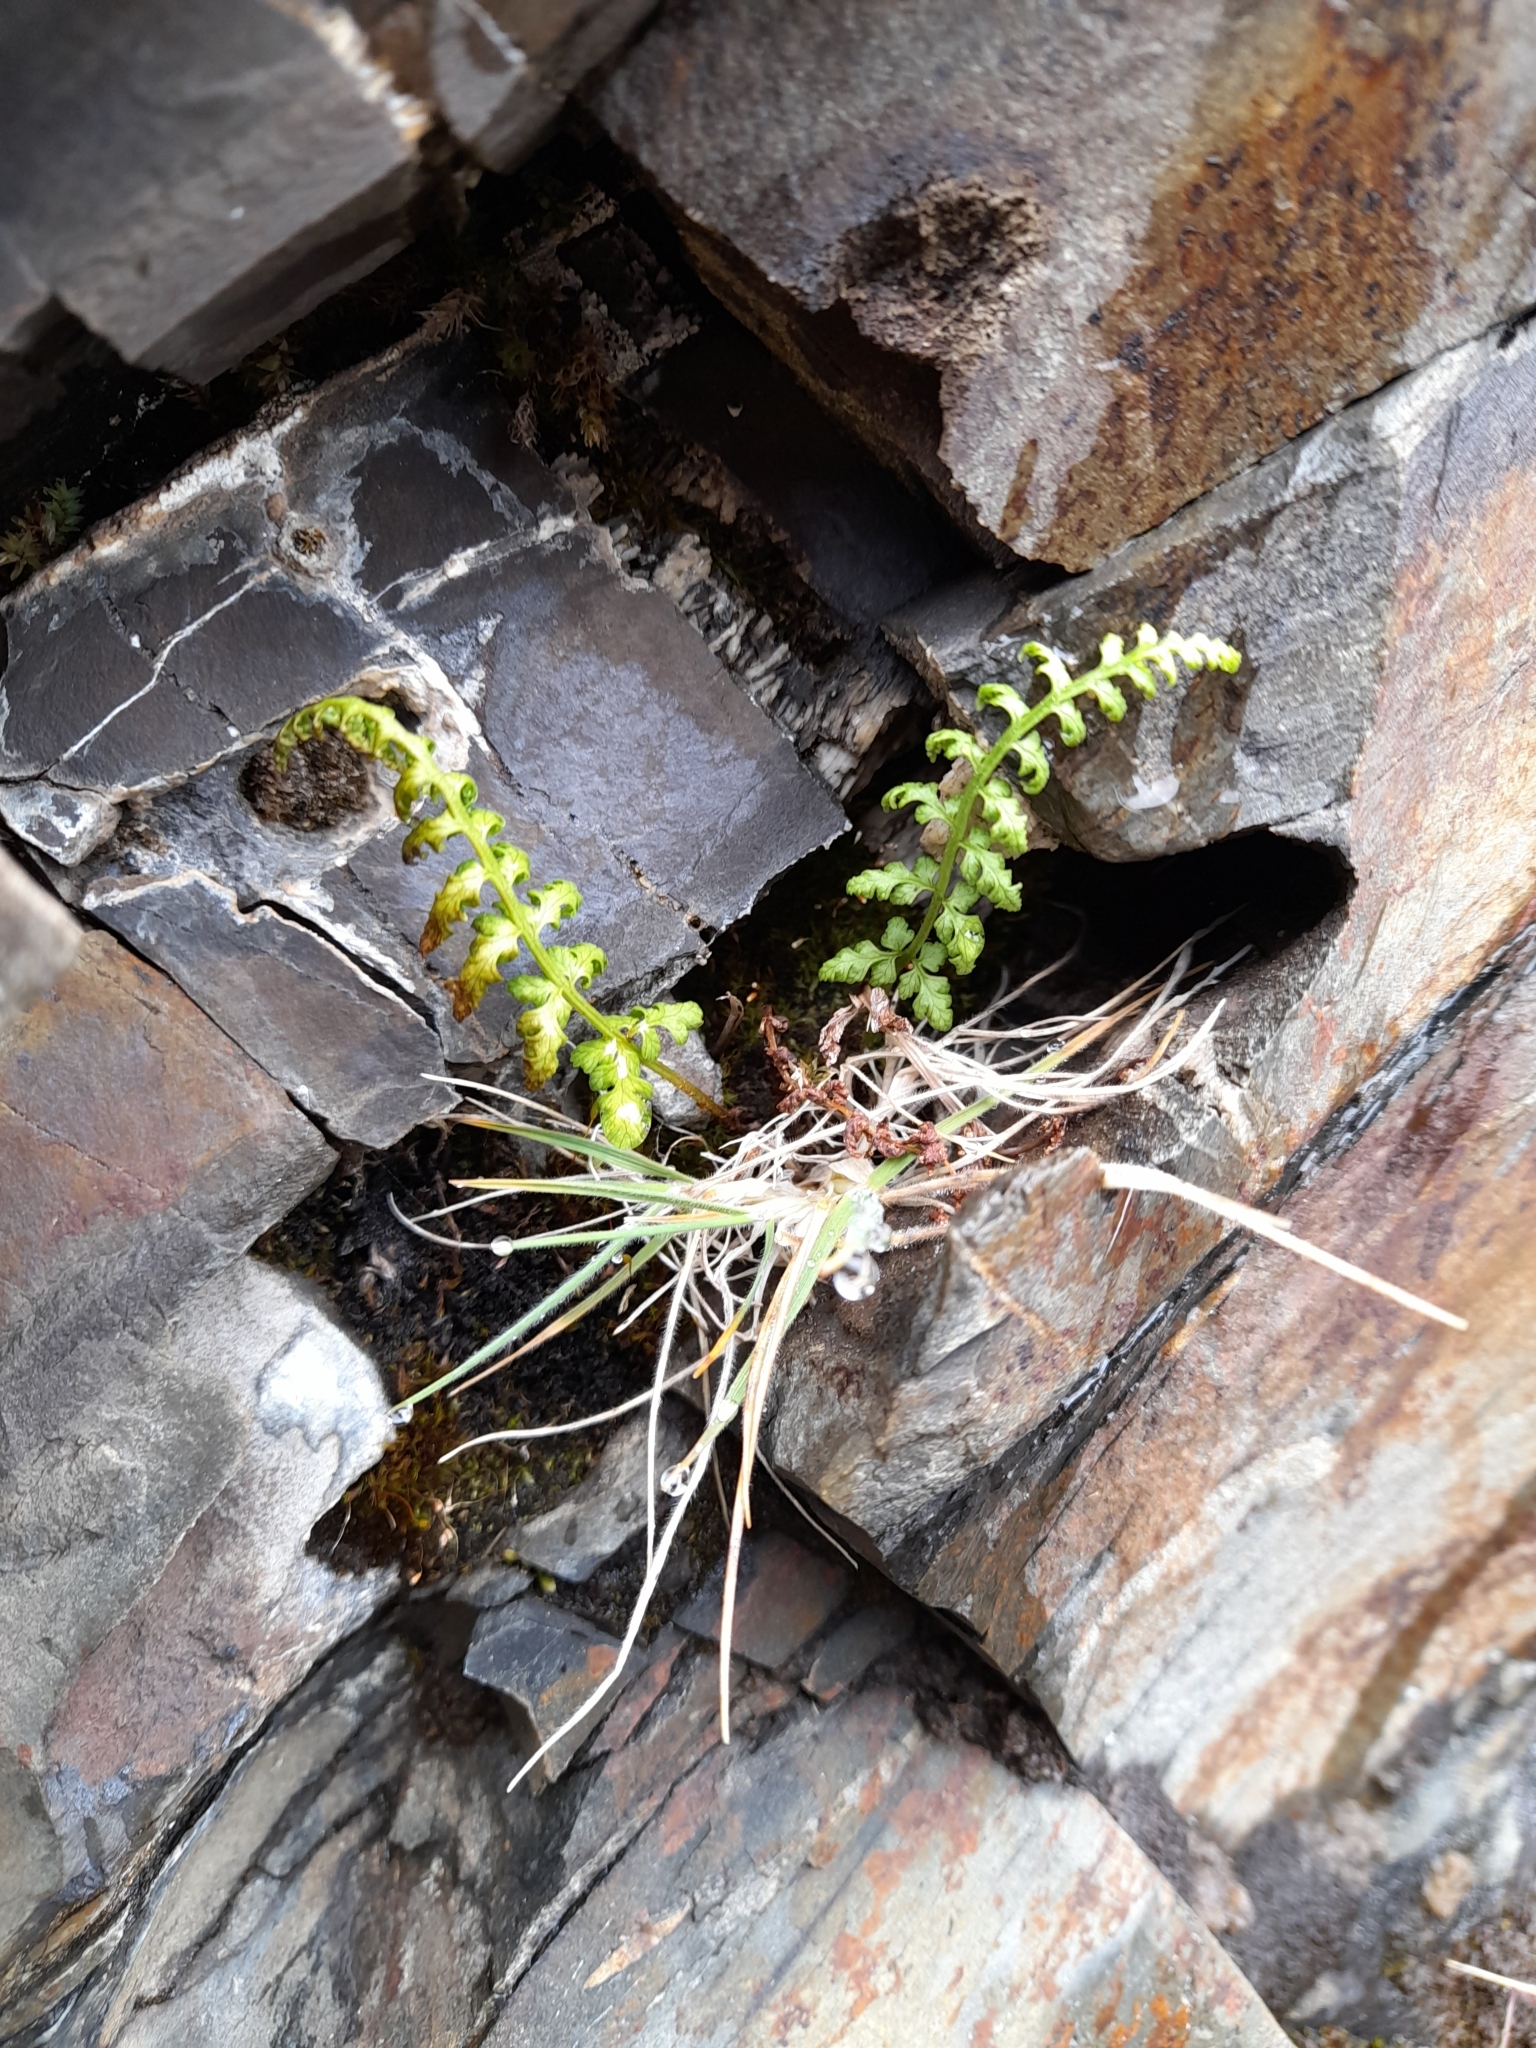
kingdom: Plantae
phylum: Tracheophyta
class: Polypodiopsida
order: Polypodiales
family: Cystopteridaceae
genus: Cystopteris
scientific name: Cystopteris fragilis
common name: Brittle bladder fern
